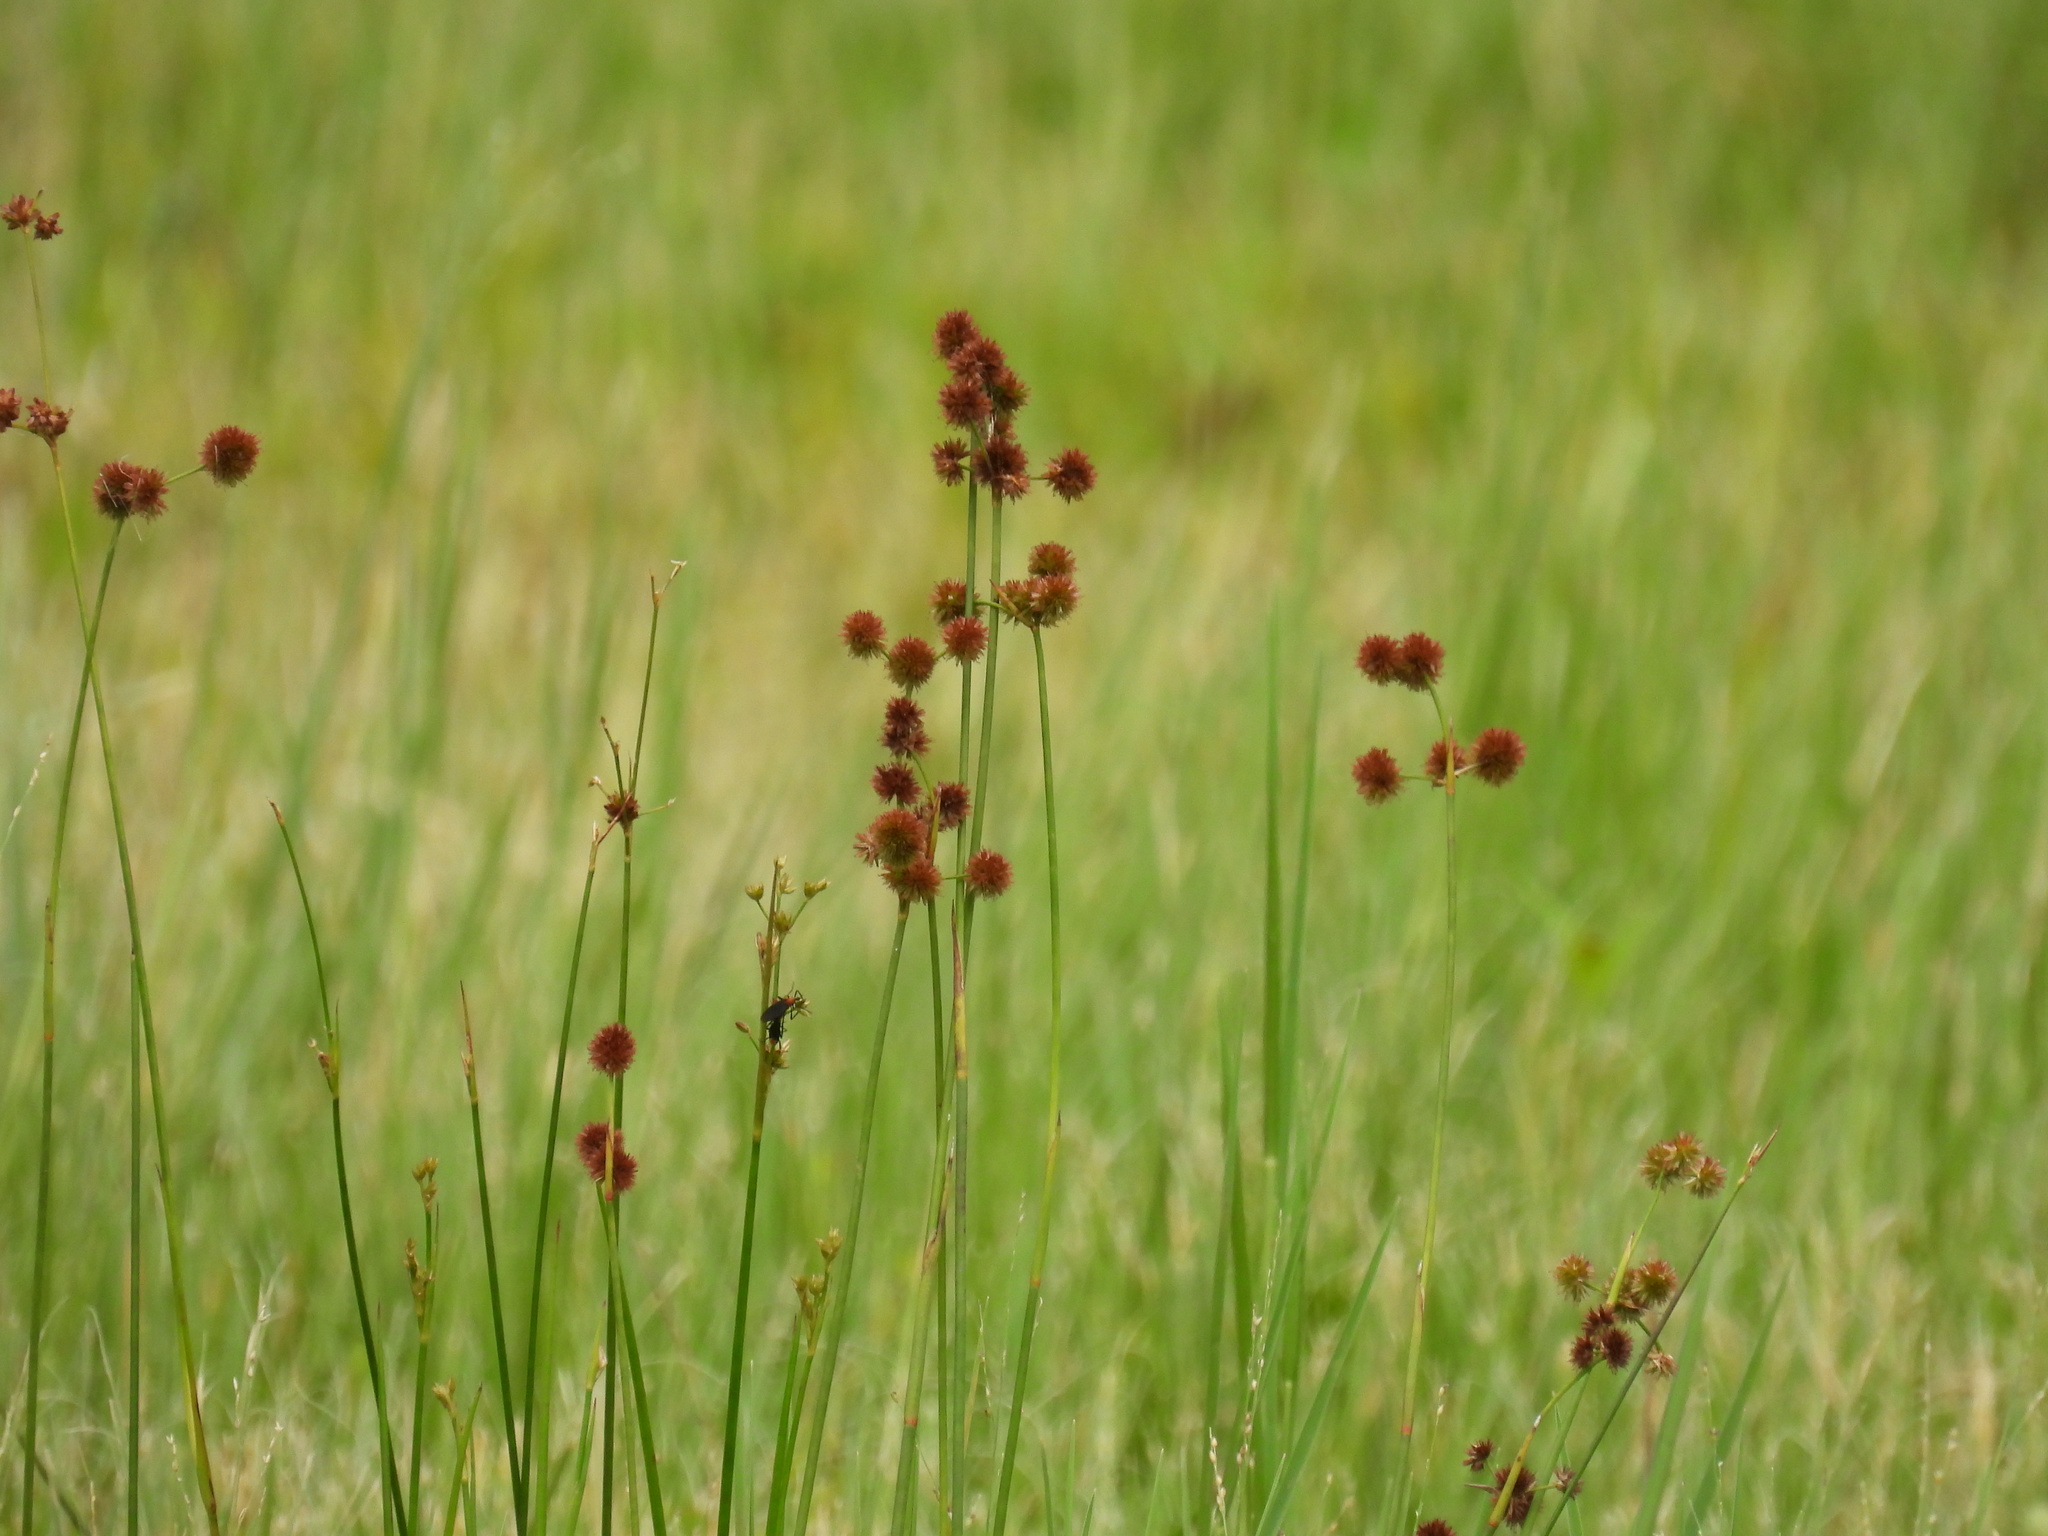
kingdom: Plantae
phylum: Tracheophyta
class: Liliopsida
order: Poales
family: Juncaceae
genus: Juncus
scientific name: Juncus megacephalus
